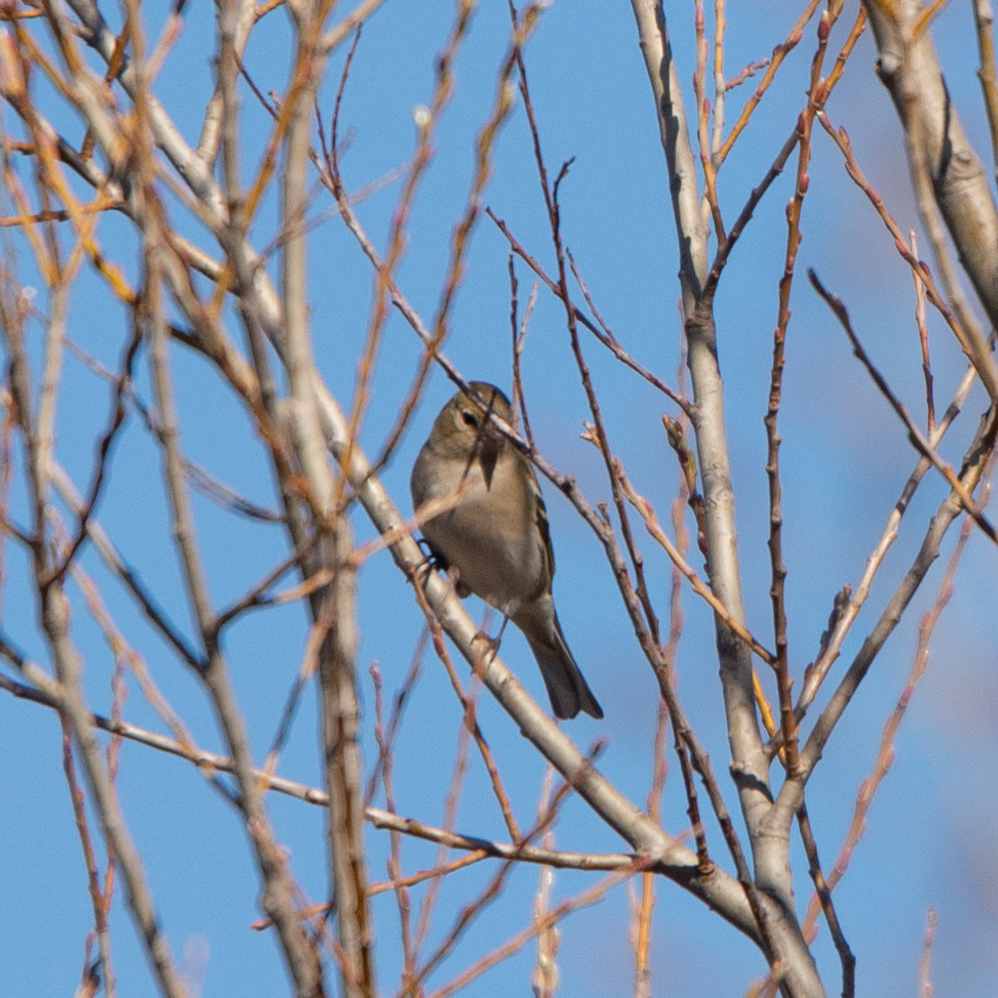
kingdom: Animalia
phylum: Chordata
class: Aves
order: Passeriformes
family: Fringillidae
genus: Fringilla
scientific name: Fringilla coelebs
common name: Common chaffinch
